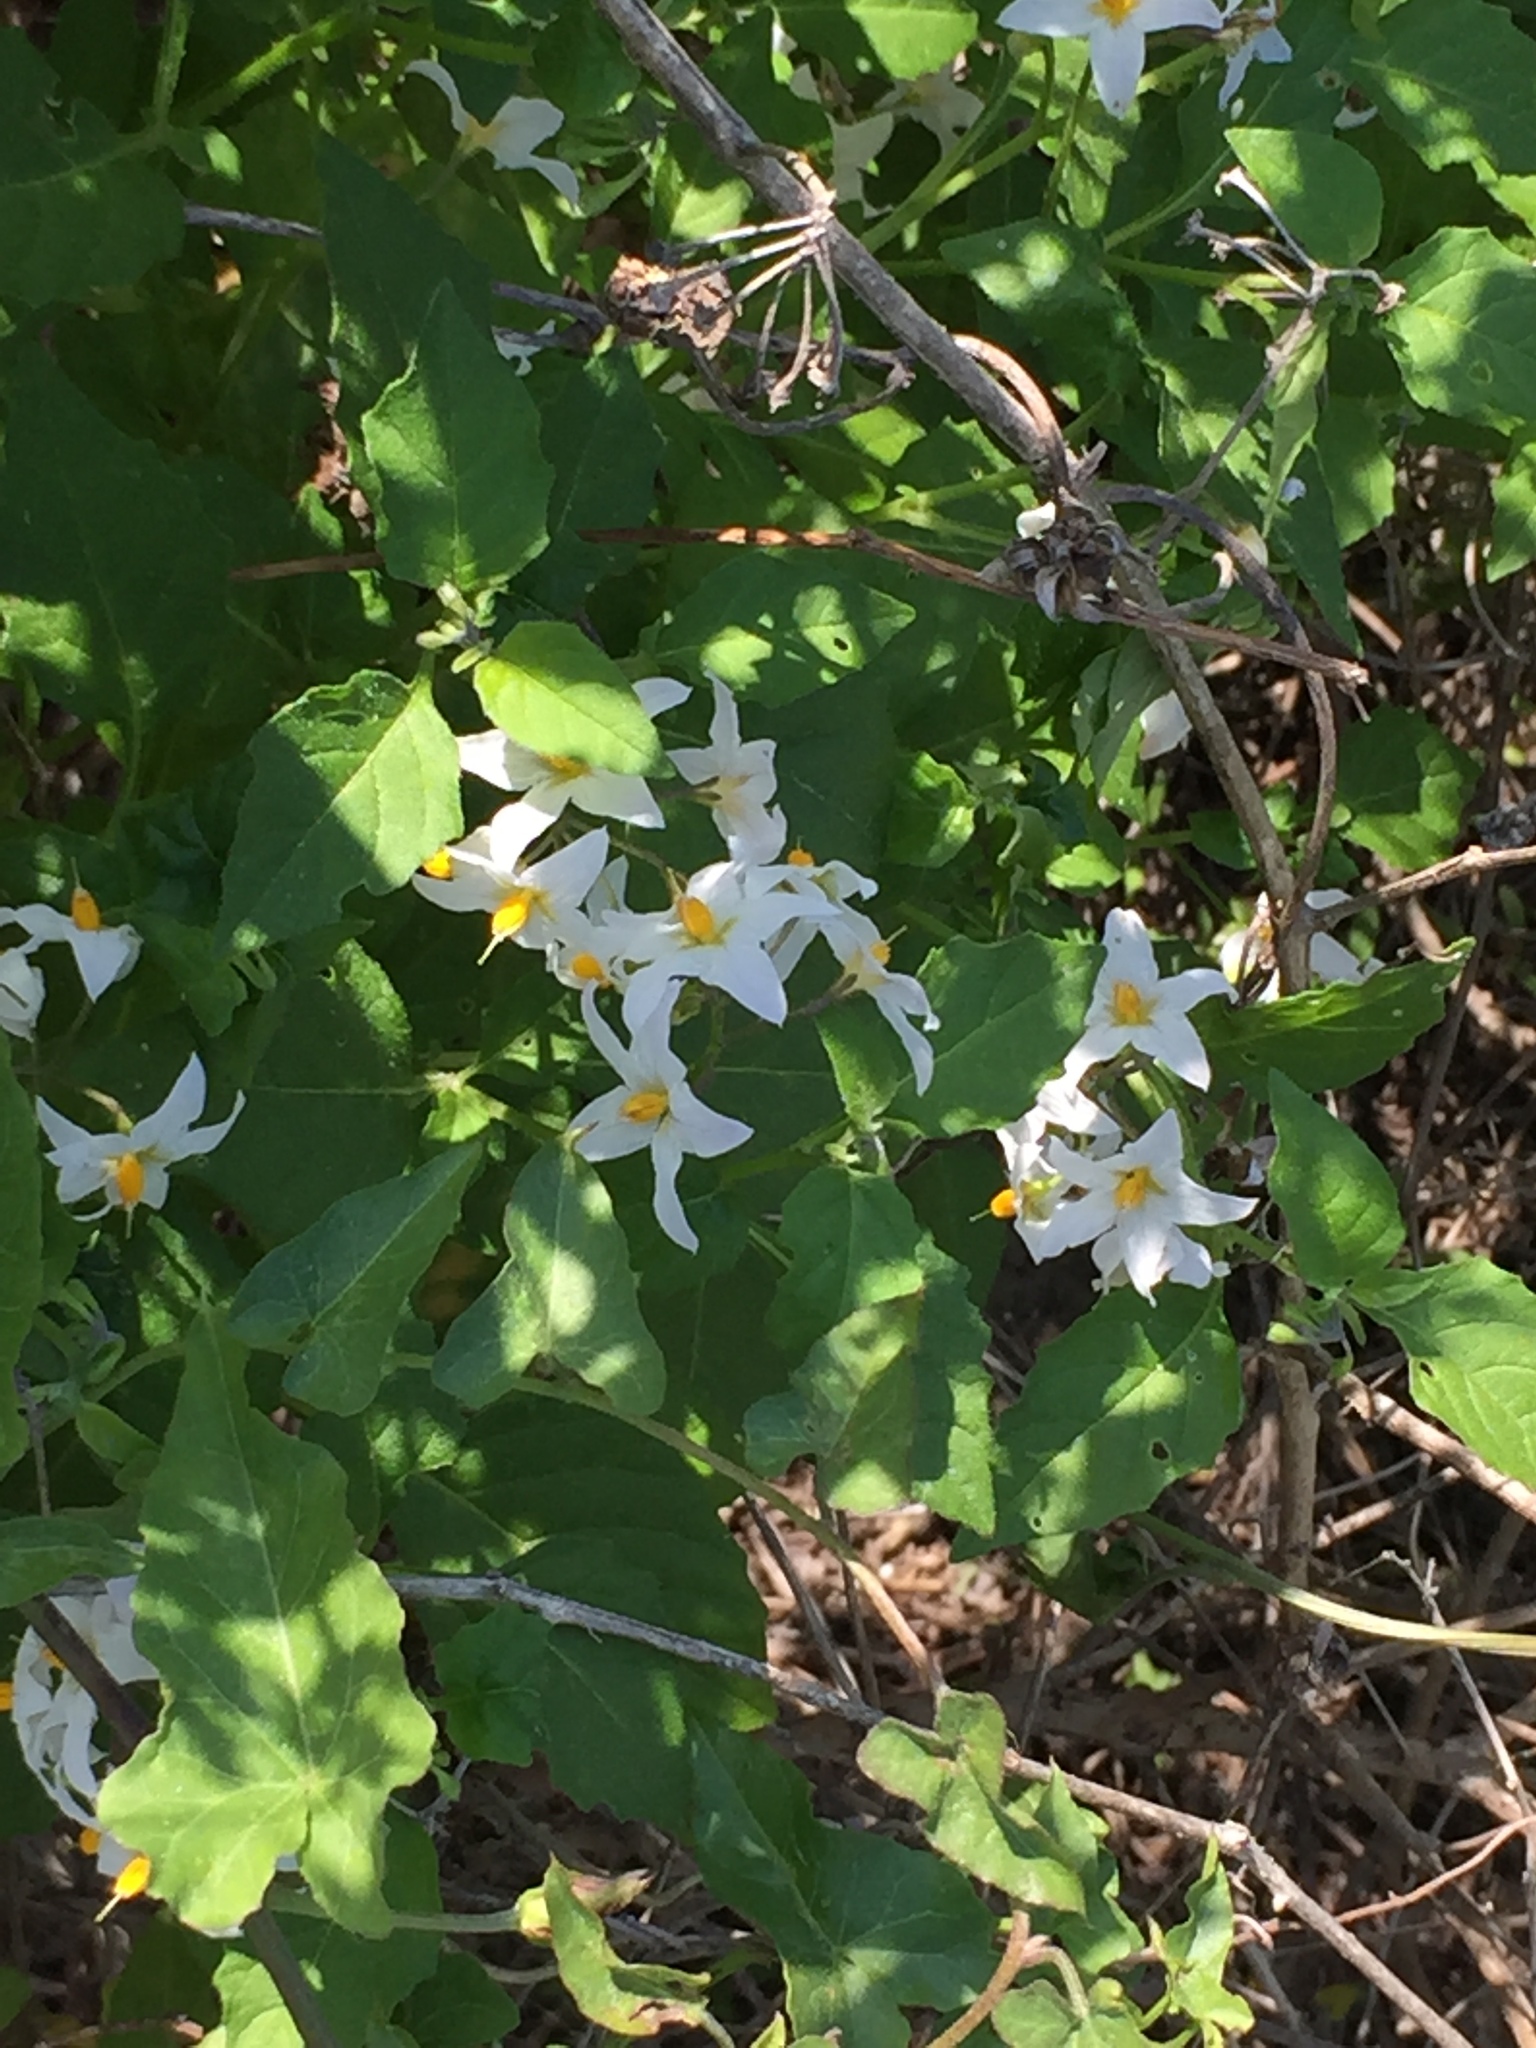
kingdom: Plantae
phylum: Tracheophyta
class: Magnoliopsida
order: Solanales
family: Solanaceae
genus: Solanum
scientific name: Solanum douglasii
